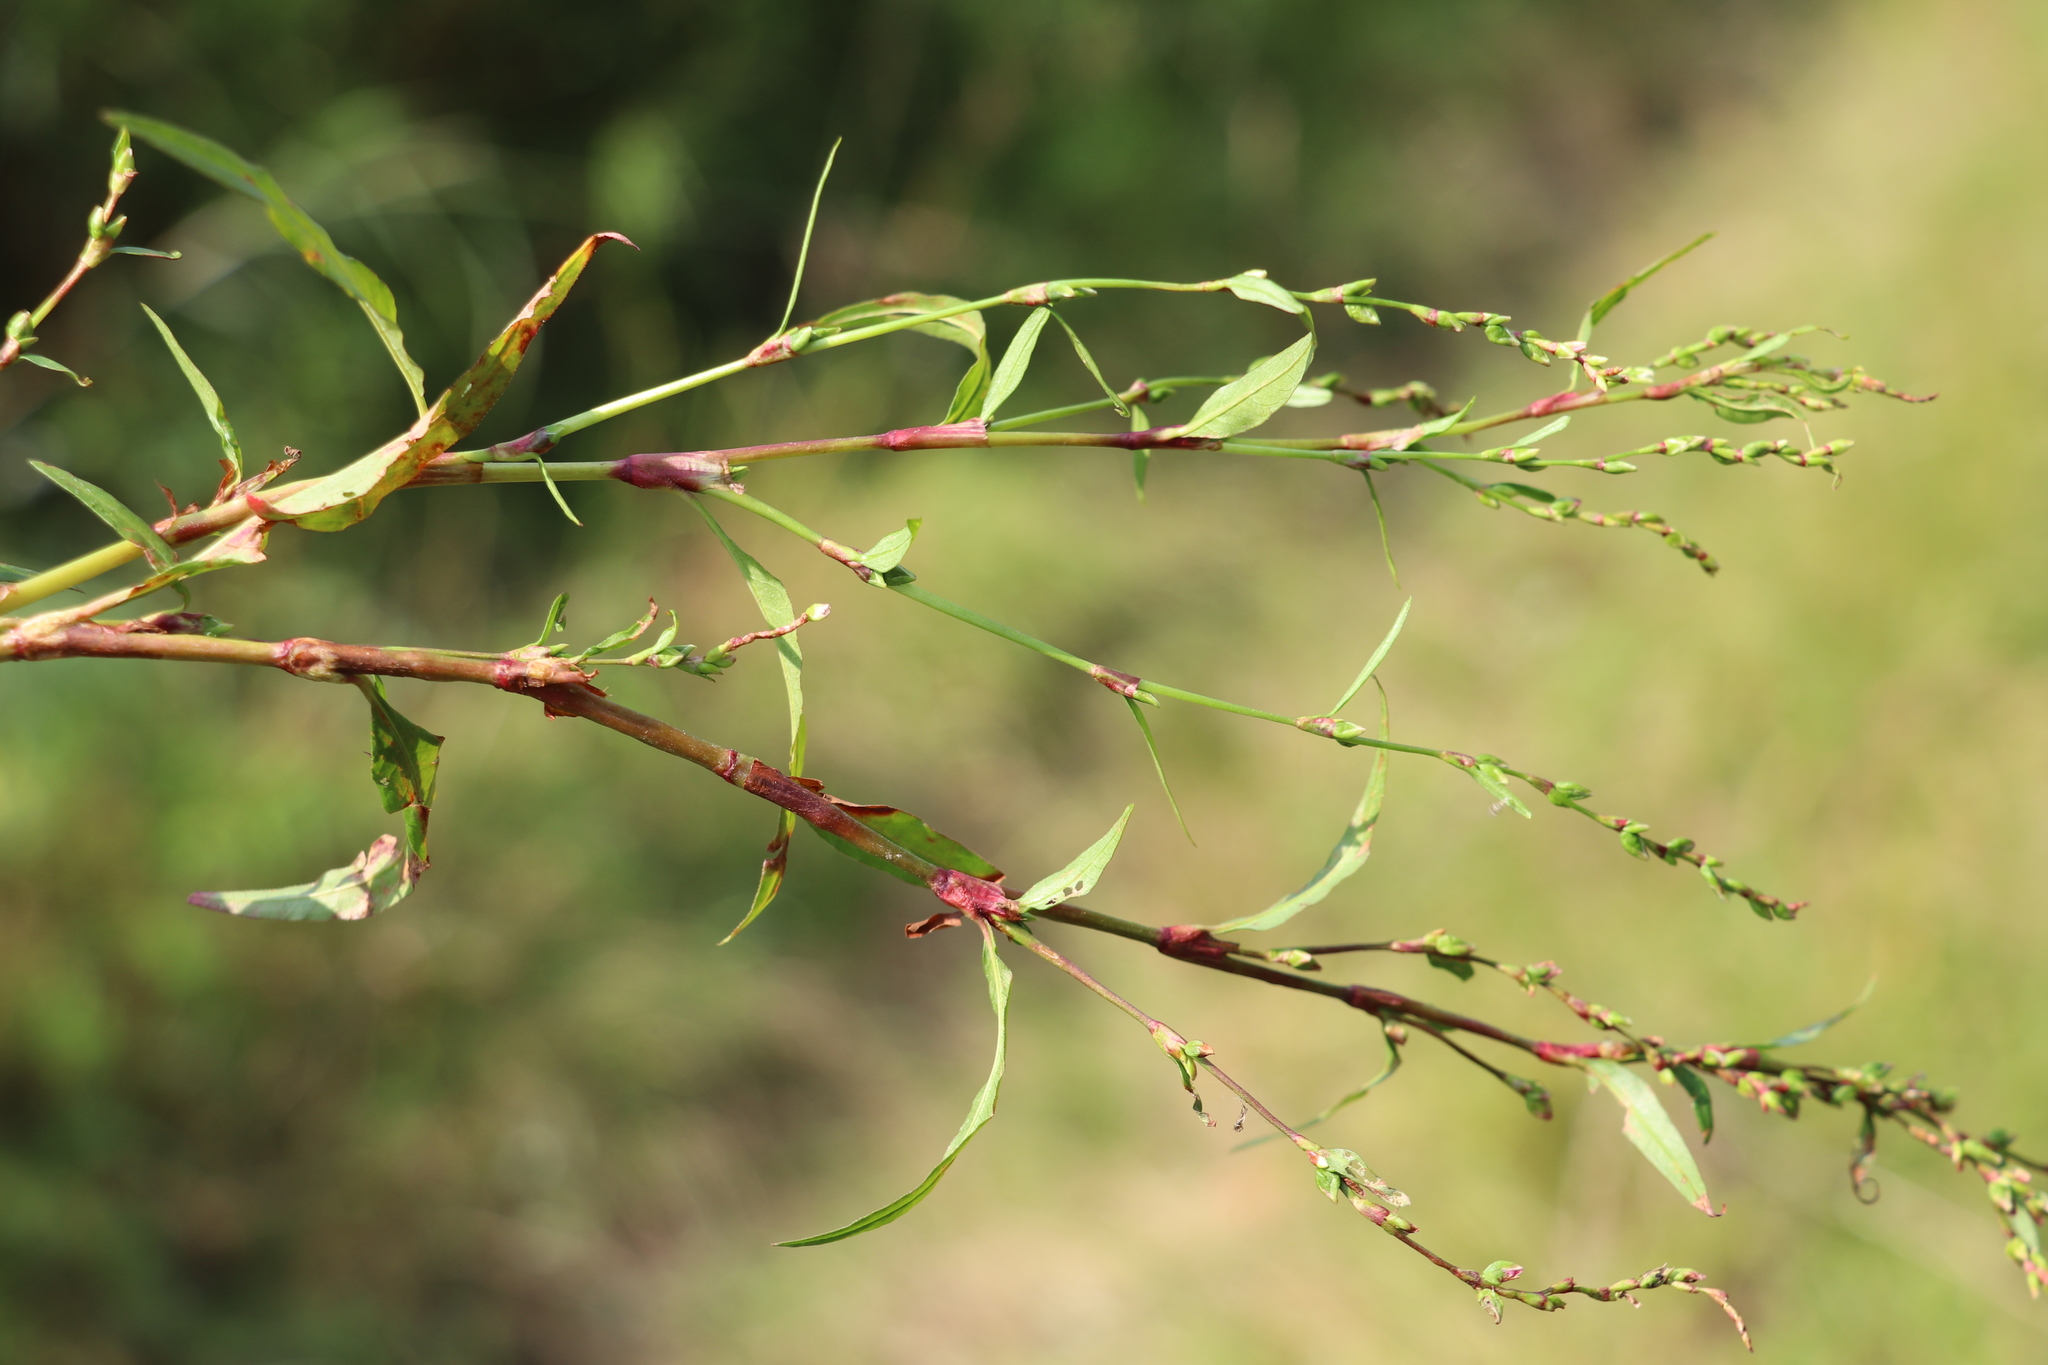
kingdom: Plantae
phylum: Tracheophyta
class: Magnoliopsida
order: Caryophyllales
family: Polygonaceae
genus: Persicaria
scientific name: Persicaria hydropiper
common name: Water-pepper
